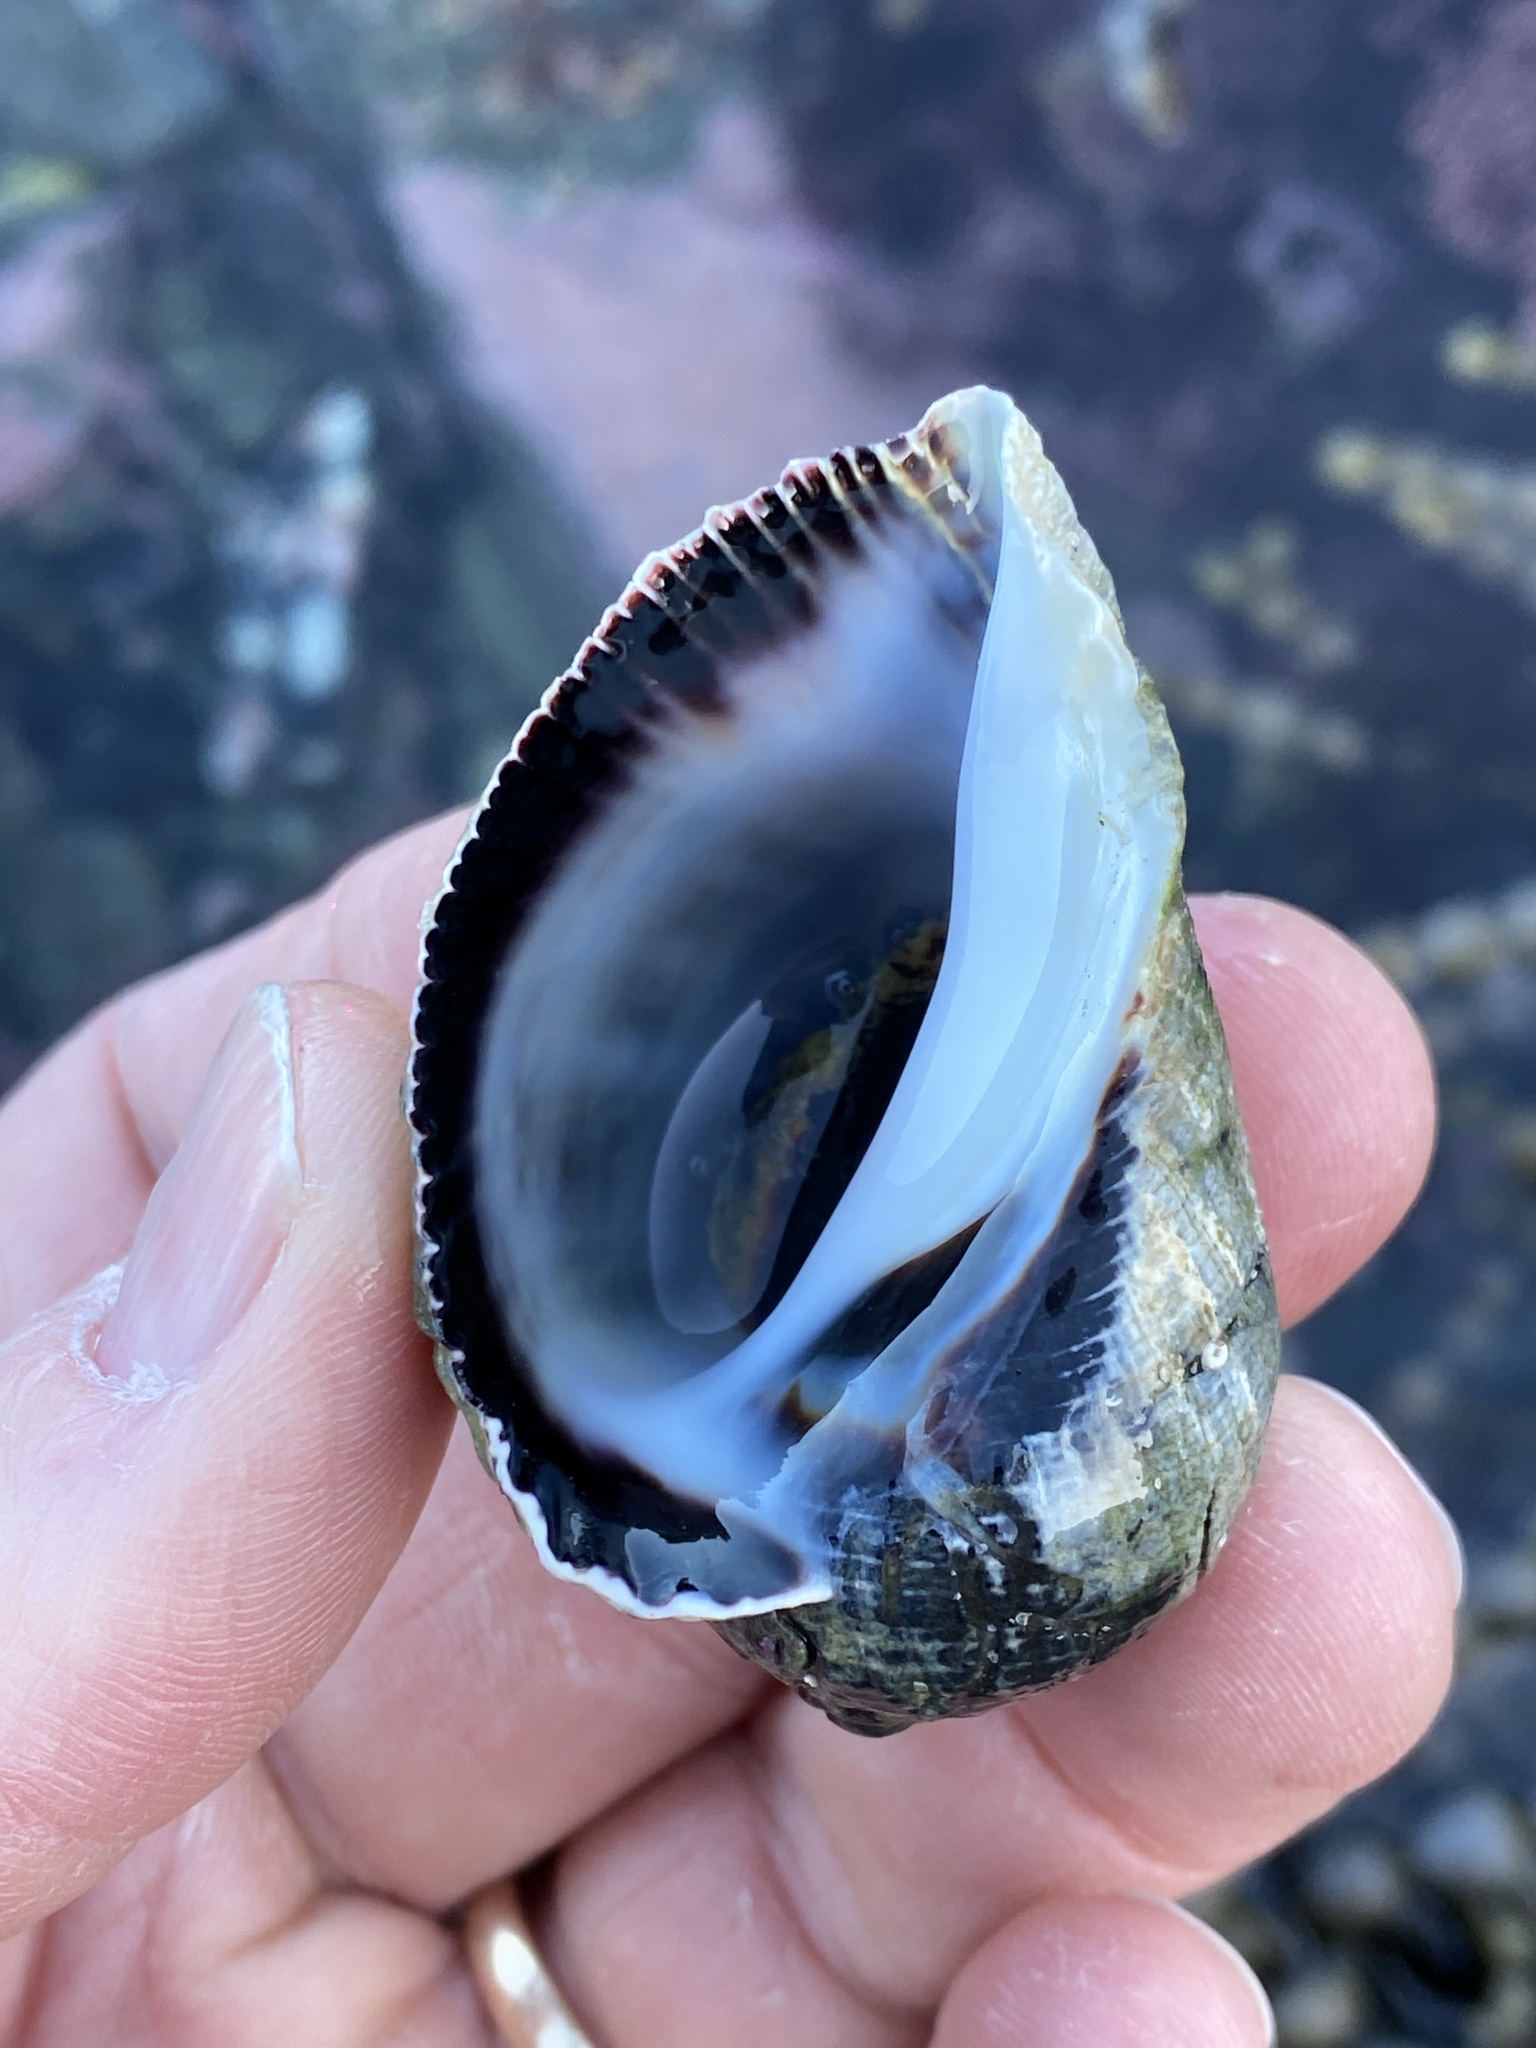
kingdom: Animalia
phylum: Mollusca
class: Gastropoda
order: Neogastropoda
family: Muricidae
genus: Haustrum
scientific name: Haustrum haustorium
